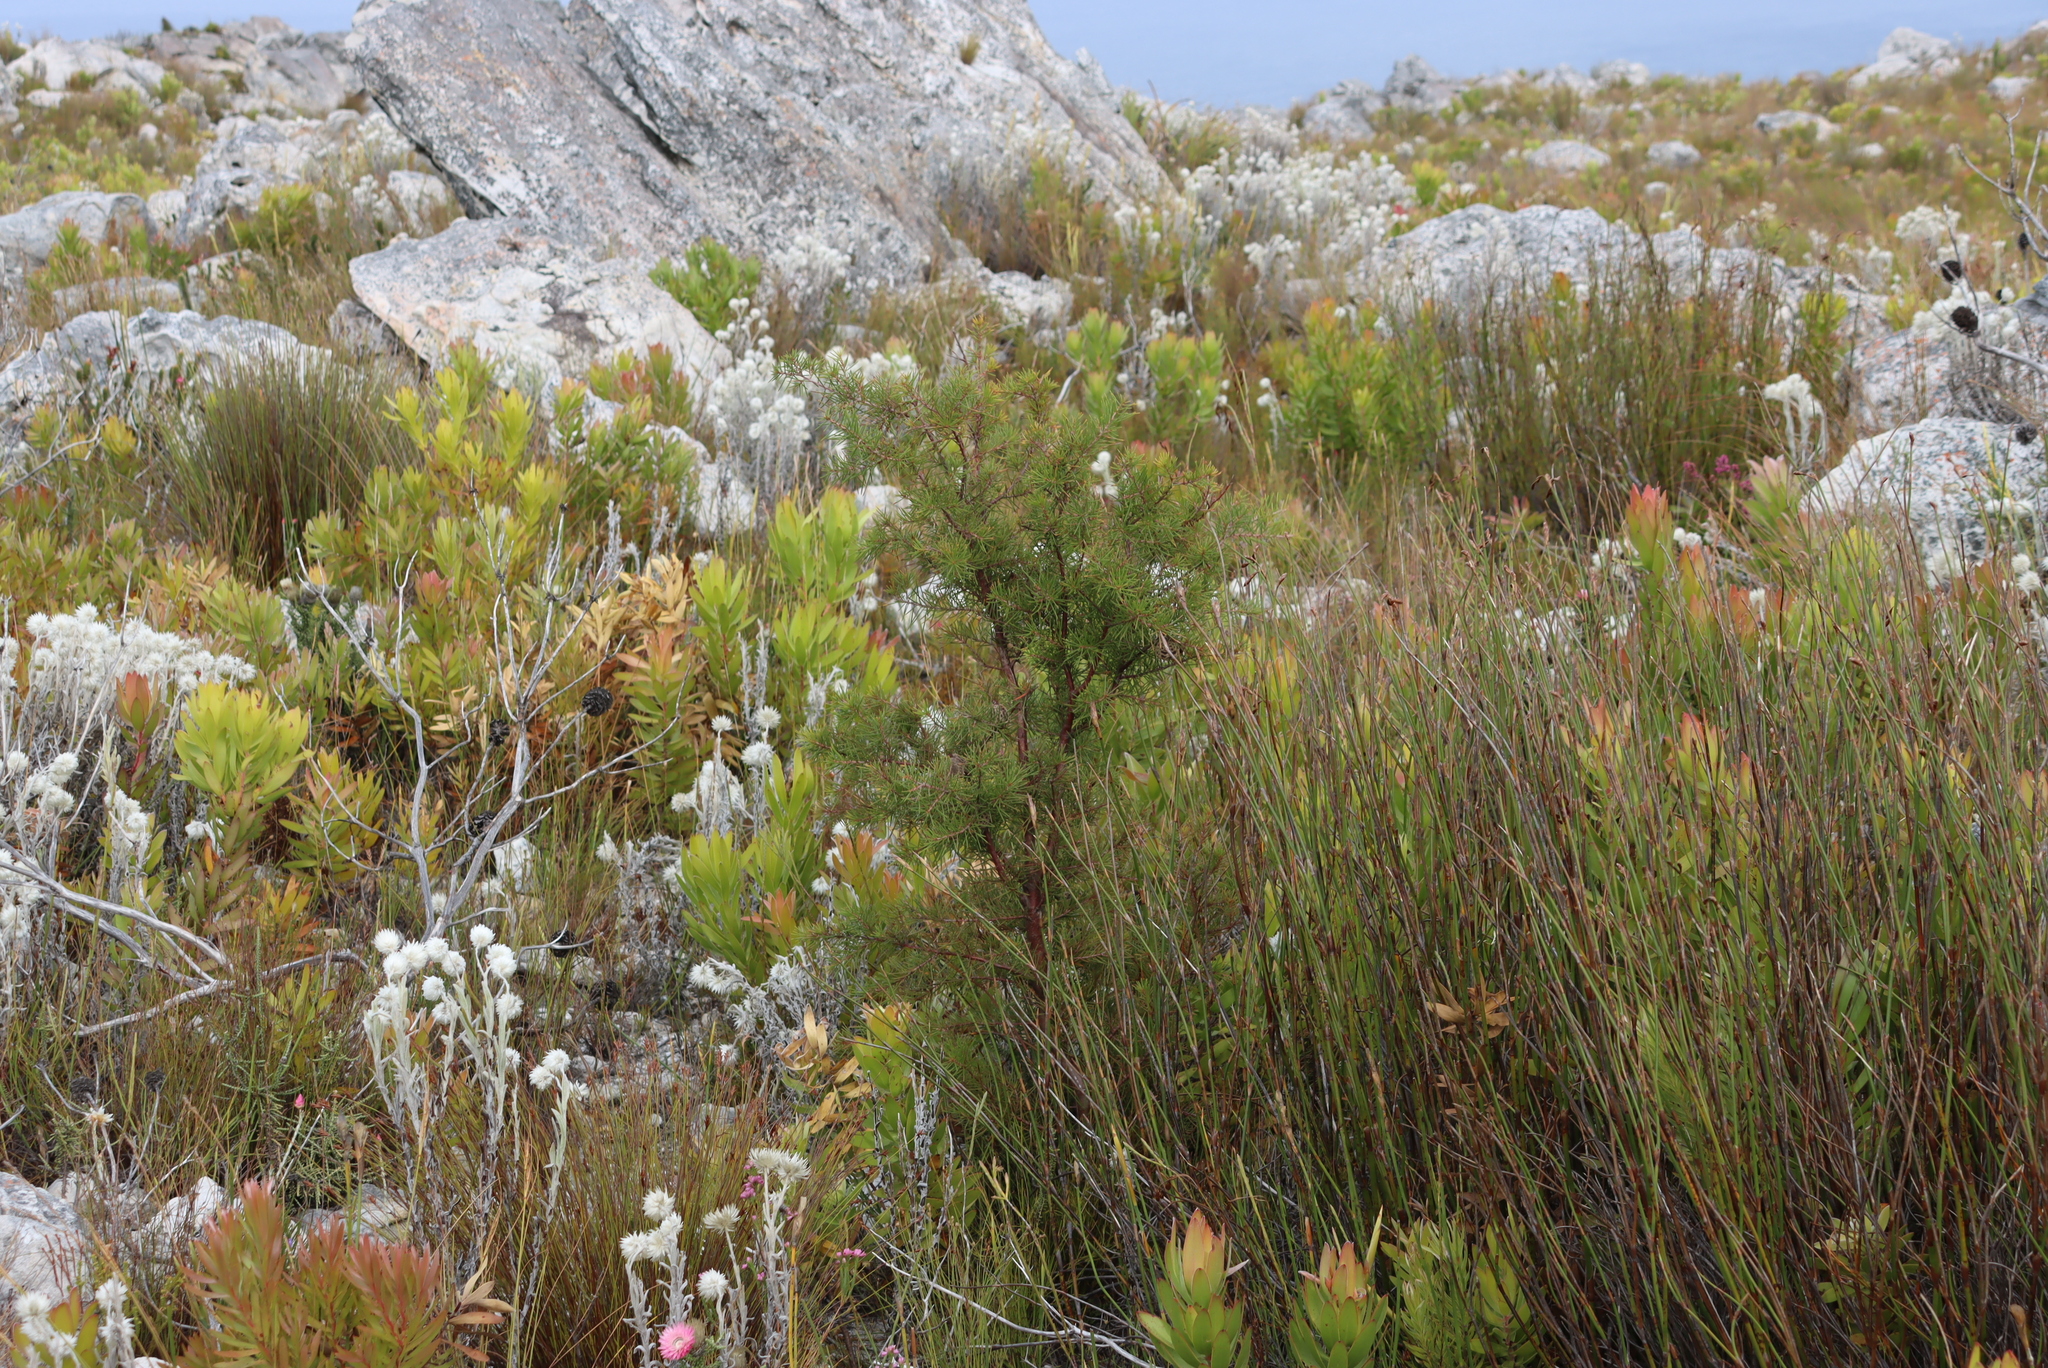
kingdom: Plantae
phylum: Tracheophyta
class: Magnoliopsida
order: Proteales
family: Proteaceae
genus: Hakea
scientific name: Hakea sericea
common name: Needle bush
